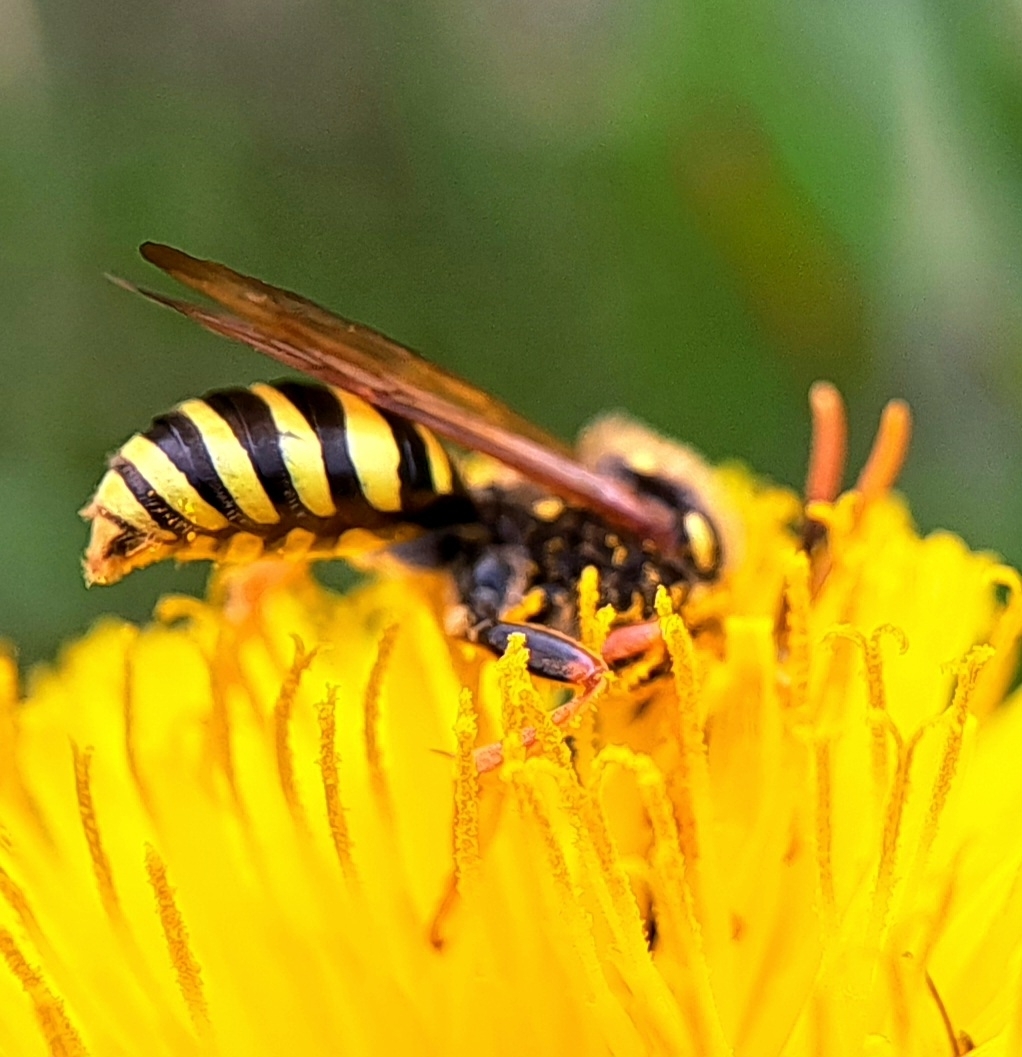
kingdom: Animalia
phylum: Arthropoda
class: Insecta
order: Hymenoptera
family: Apidae
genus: Nomada
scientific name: Nomada goodeniana
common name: Gooden's nomad bee
